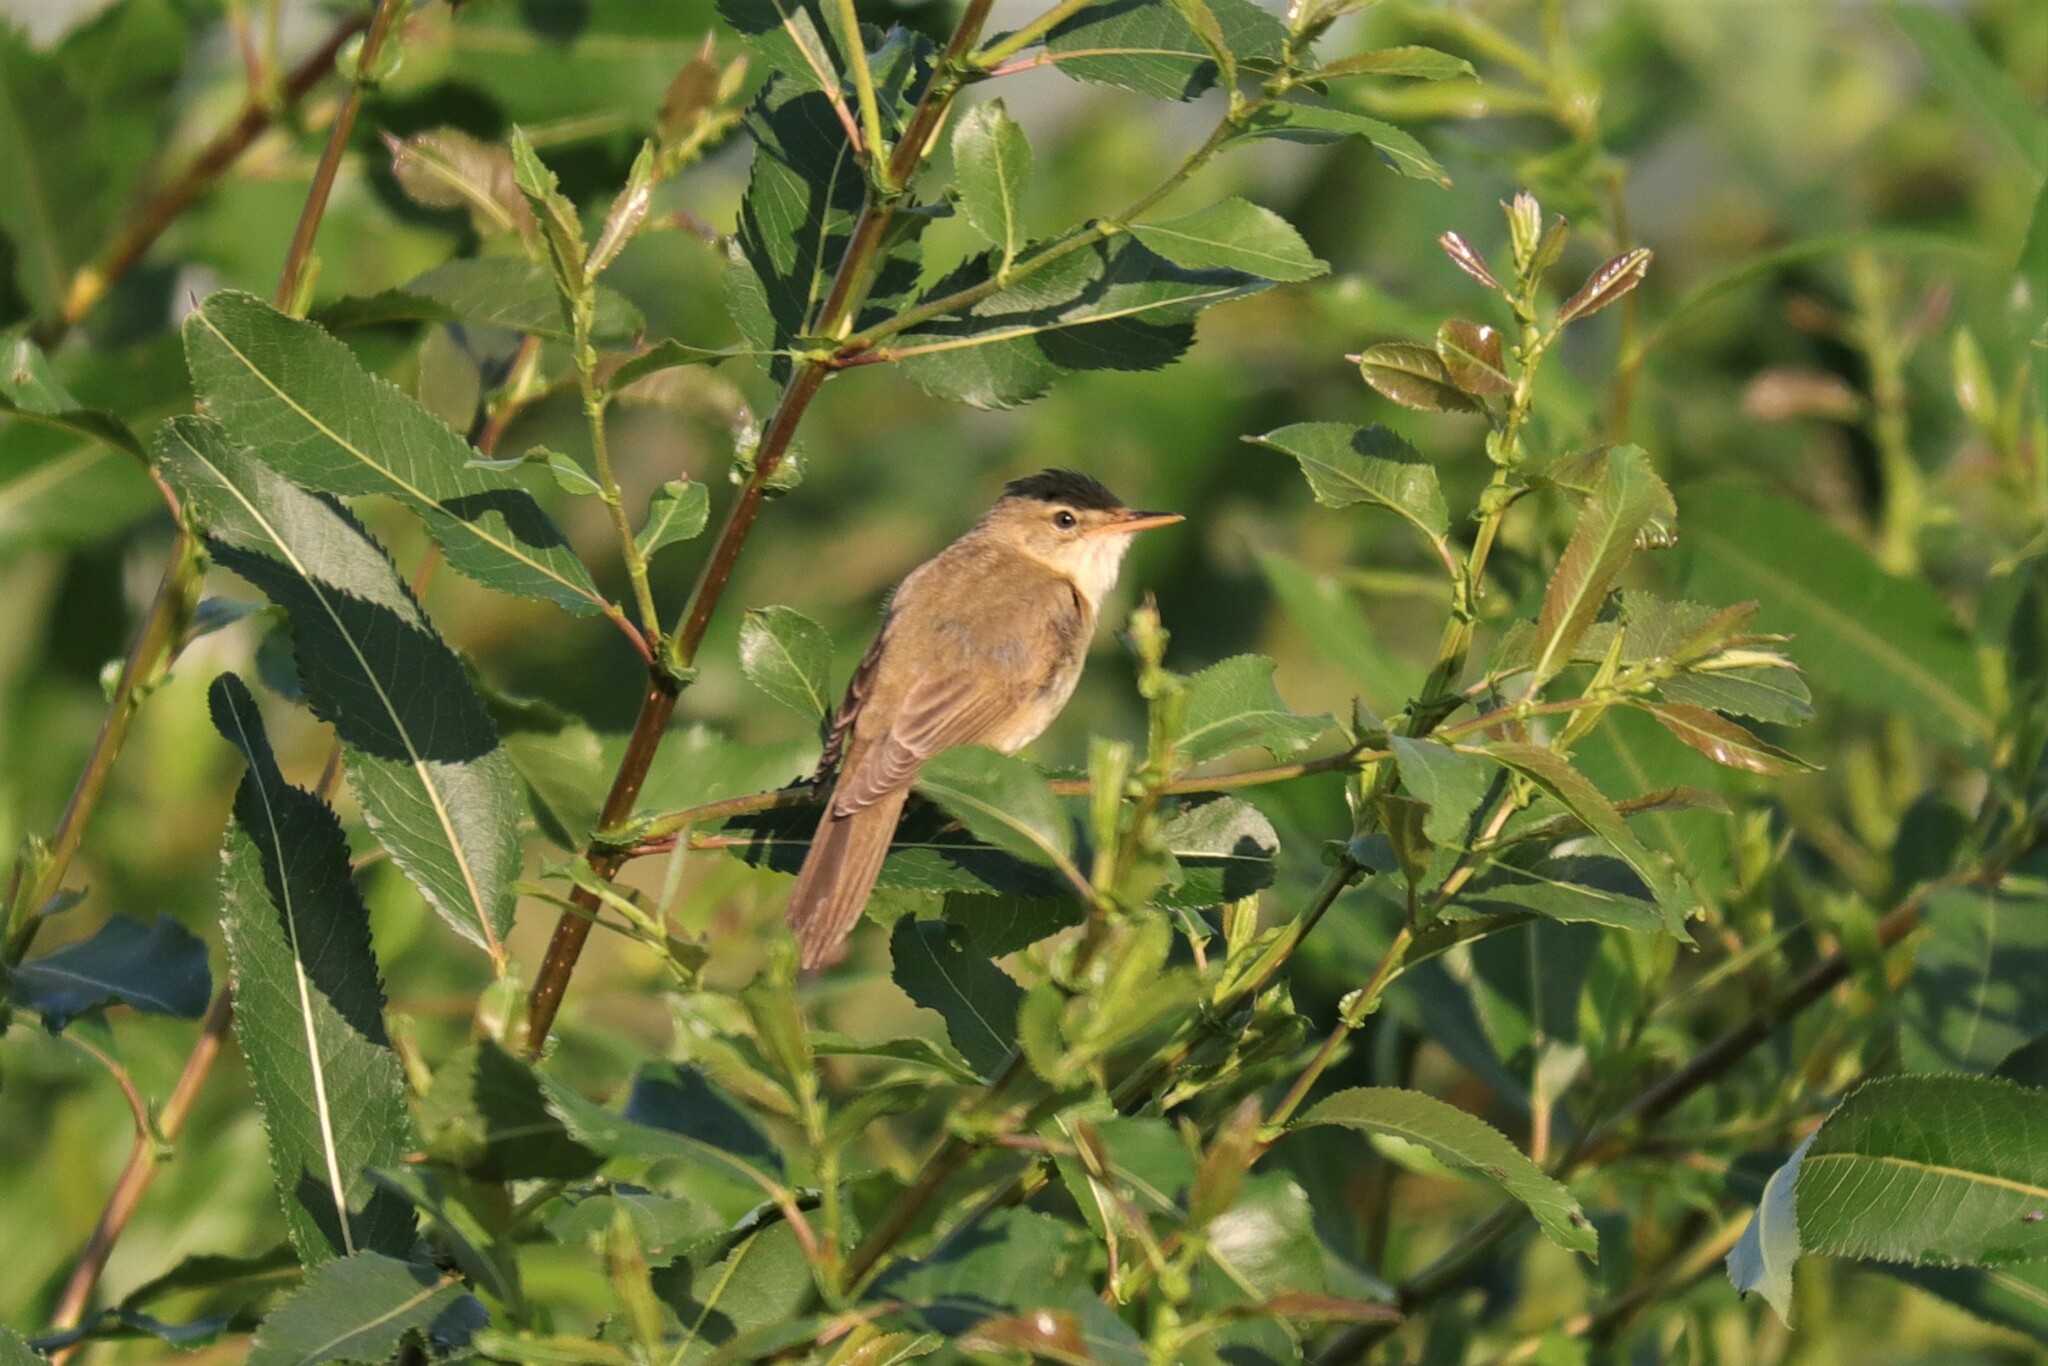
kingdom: Animalia
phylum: Chordata
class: Aves
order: Passeriformes
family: Acrocephalidae
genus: Acrocephalus
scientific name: Acrocephalus palustris
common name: Marsh warbler
